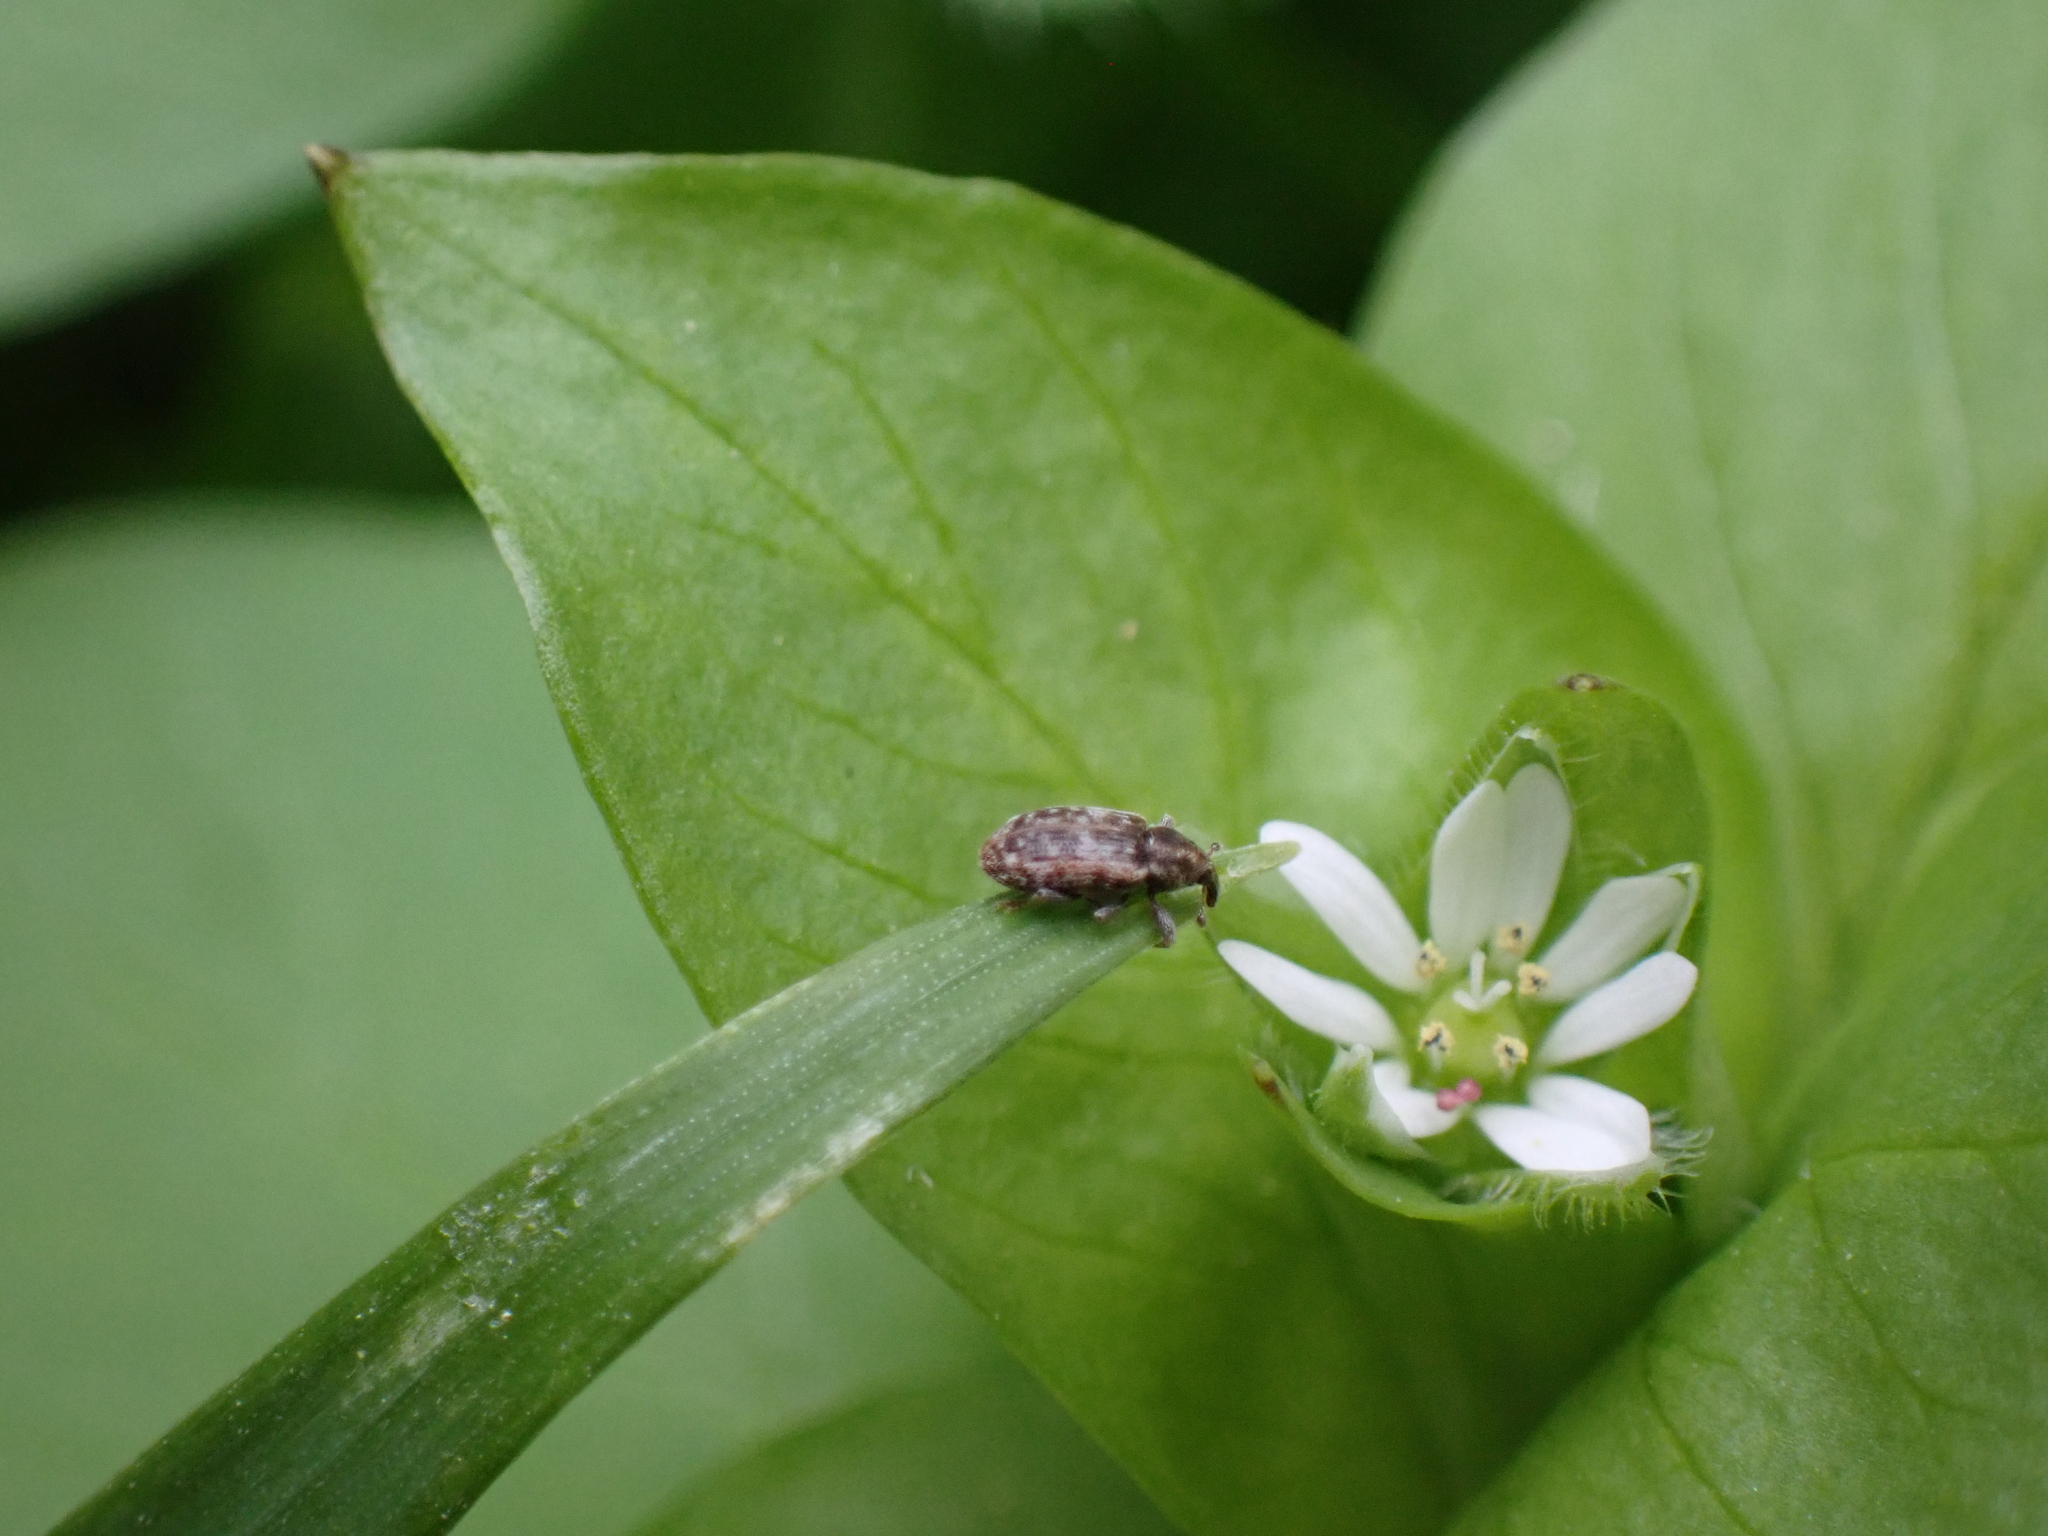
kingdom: Animalia
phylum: Arthropoda
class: Insecta
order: Coleoptera
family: Curculionidae
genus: Dorytomus
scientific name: Dorytomus ictor
